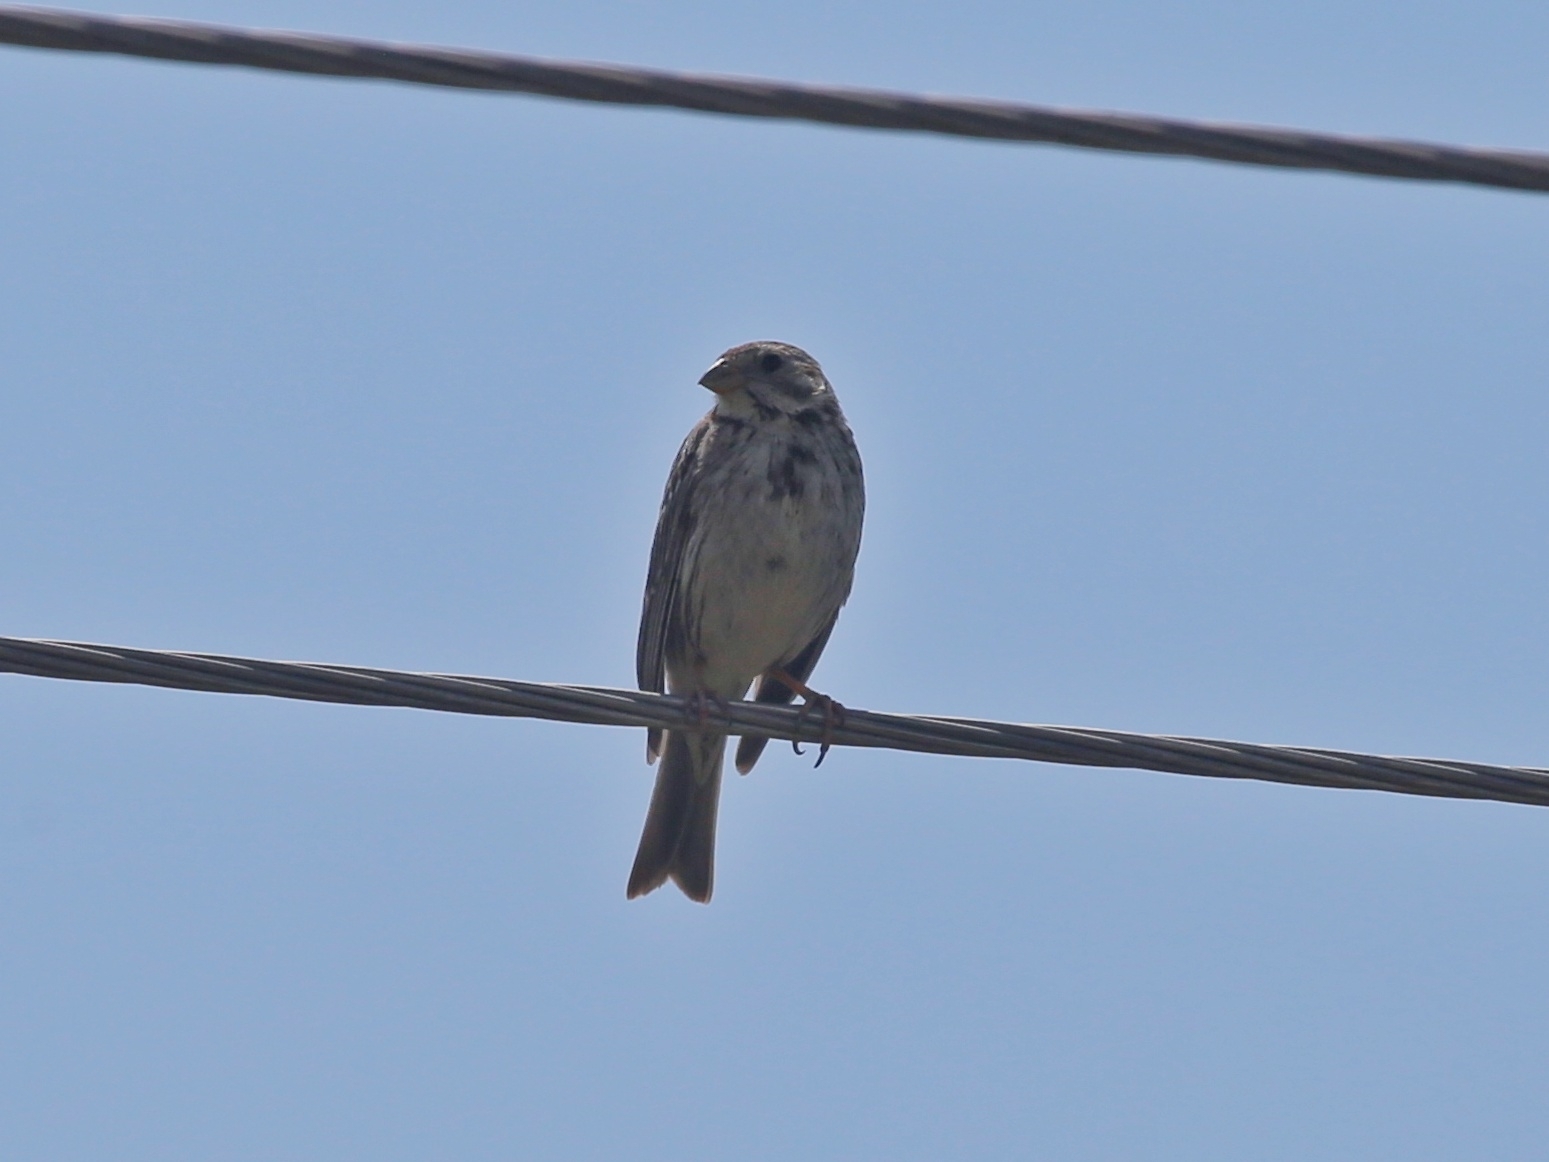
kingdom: Animalia
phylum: Chordata
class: Aves
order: Passeriformes
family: Emberizidae
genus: Emberiza
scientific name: Emberiza calandra
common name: Corn bunting
